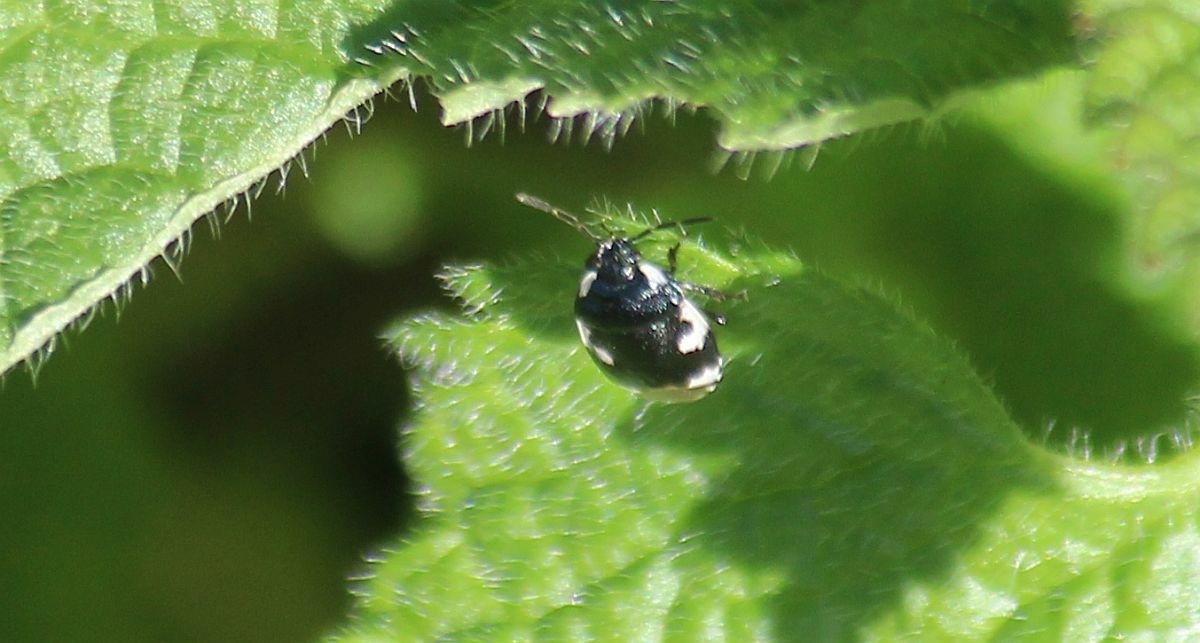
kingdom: Animalia
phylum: Arthropoda
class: Insecta
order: Hemiptera
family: Cydnidae
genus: Tritomegas
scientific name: Tritomegas bicolor
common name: Pied shieldbug
